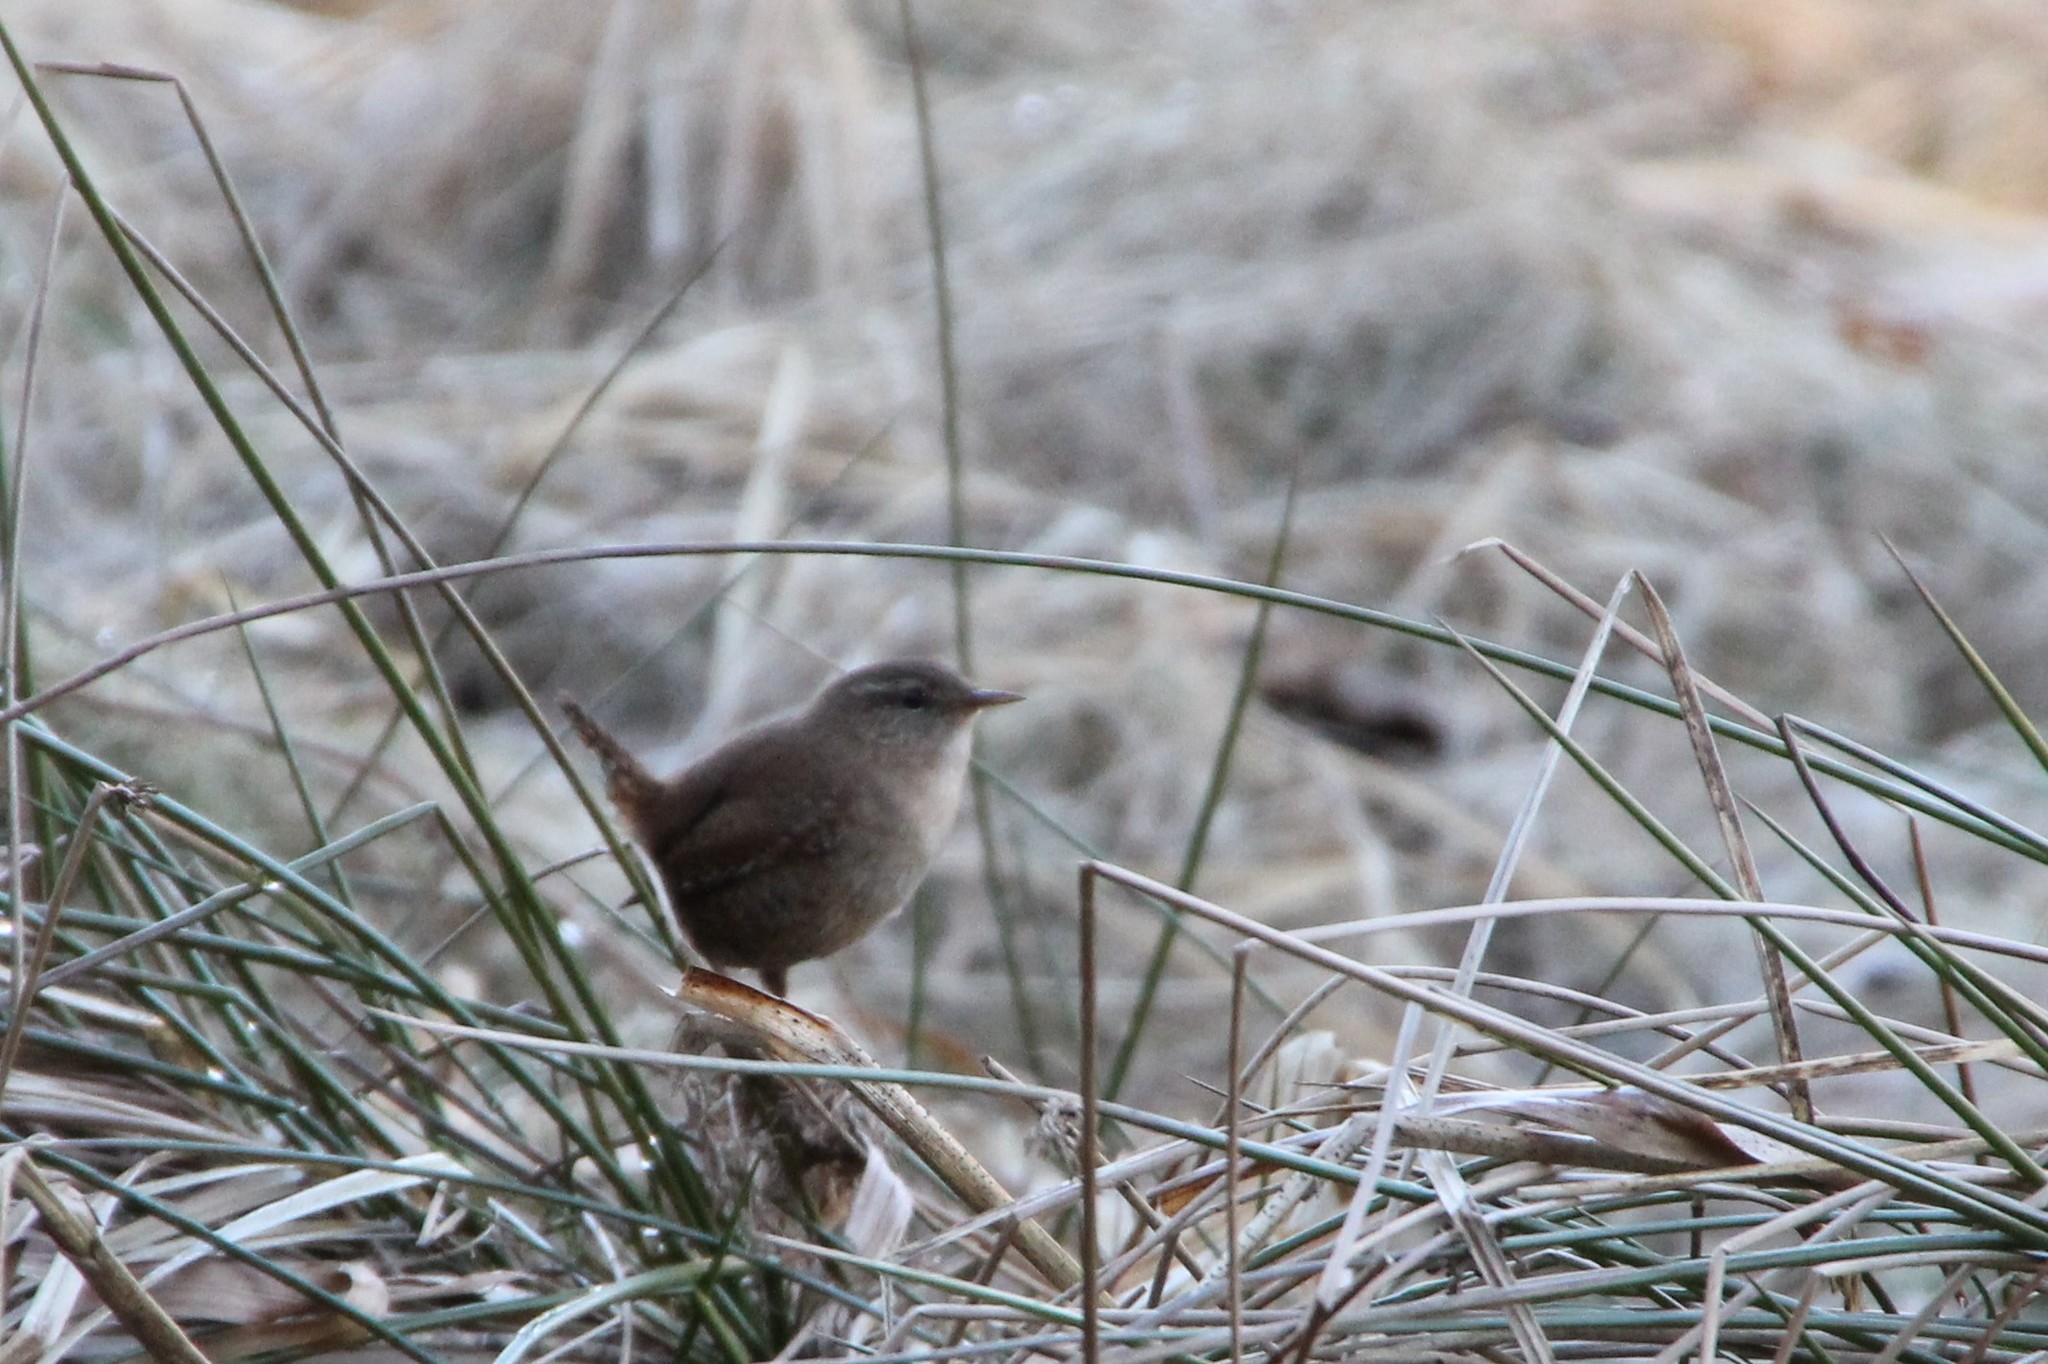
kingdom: Animalia
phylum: Chordata
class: Aves
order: Passeriformes
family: Troglodytidae
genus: Troglodytes
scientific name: Troglodytes troglodytes
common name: Eurasian wren
